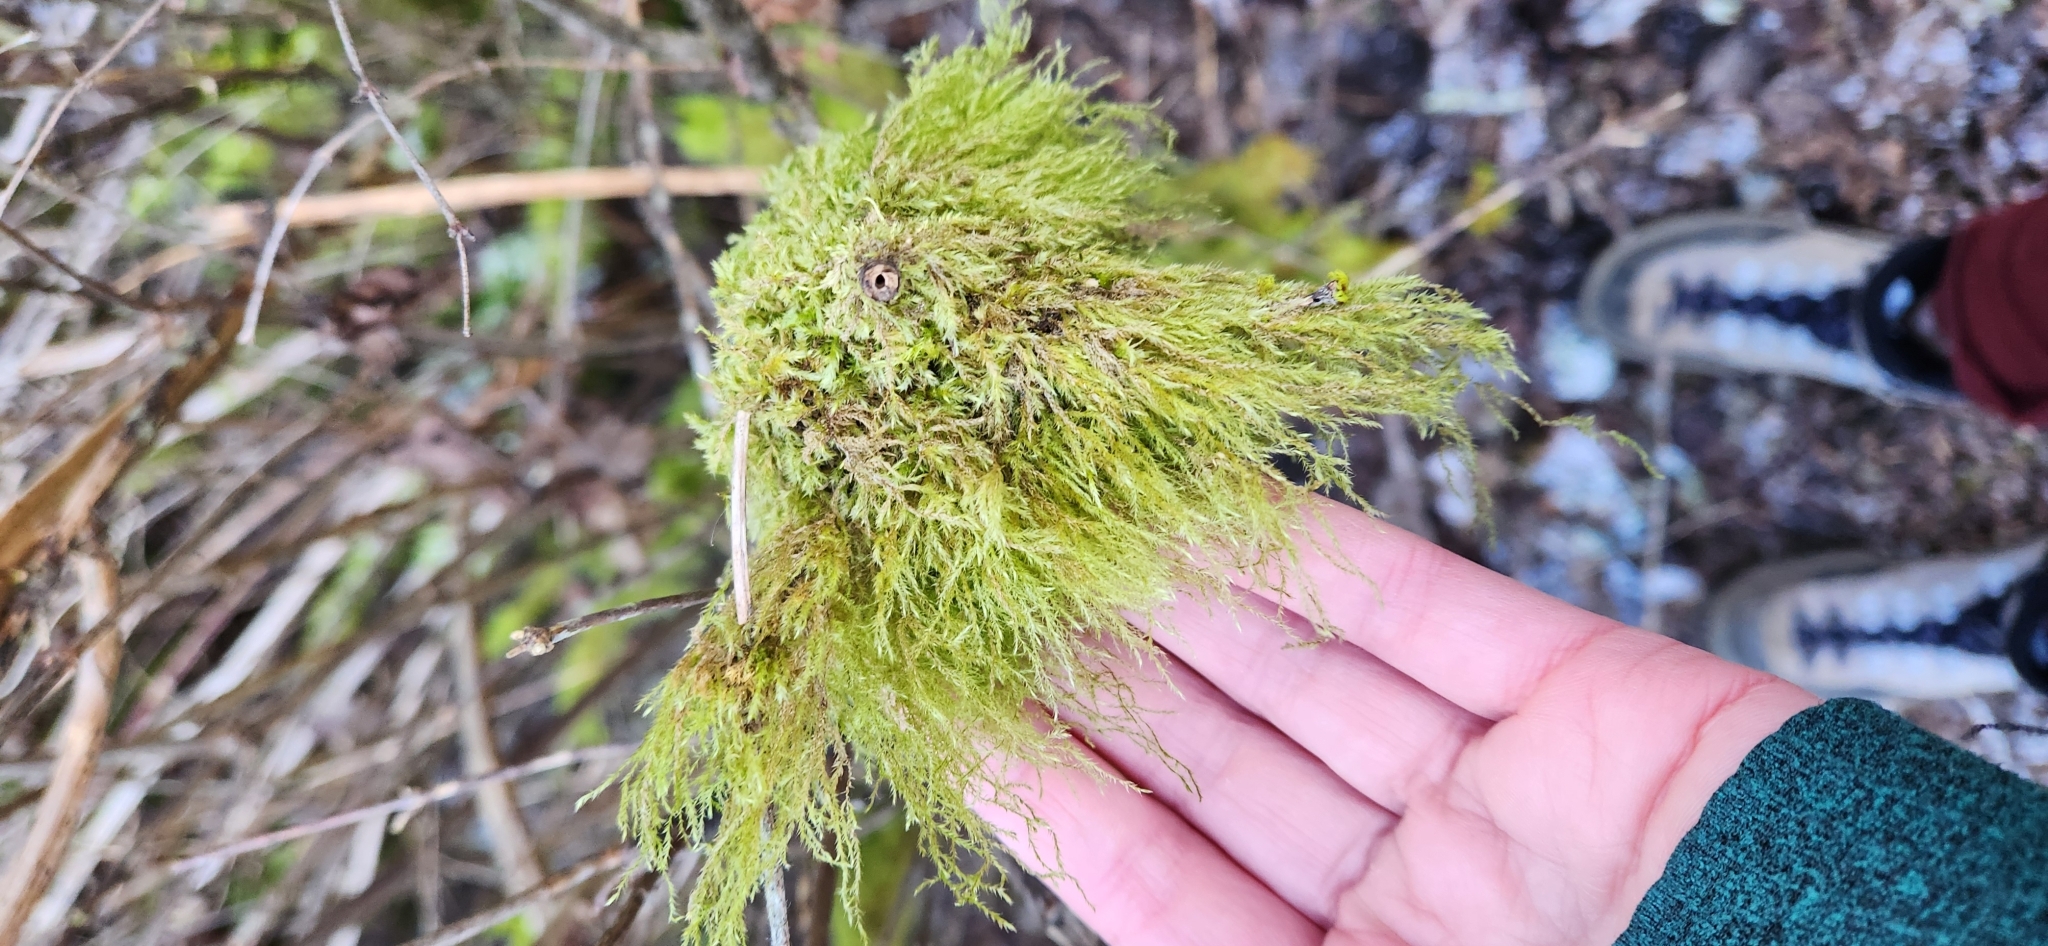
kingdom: Plantae
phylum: Bryophyta
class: Bryopsida
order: Hypnales
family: Lembophyllaceae
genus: Pseudisothecium
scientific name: Pseudisothecium stoloniferum
